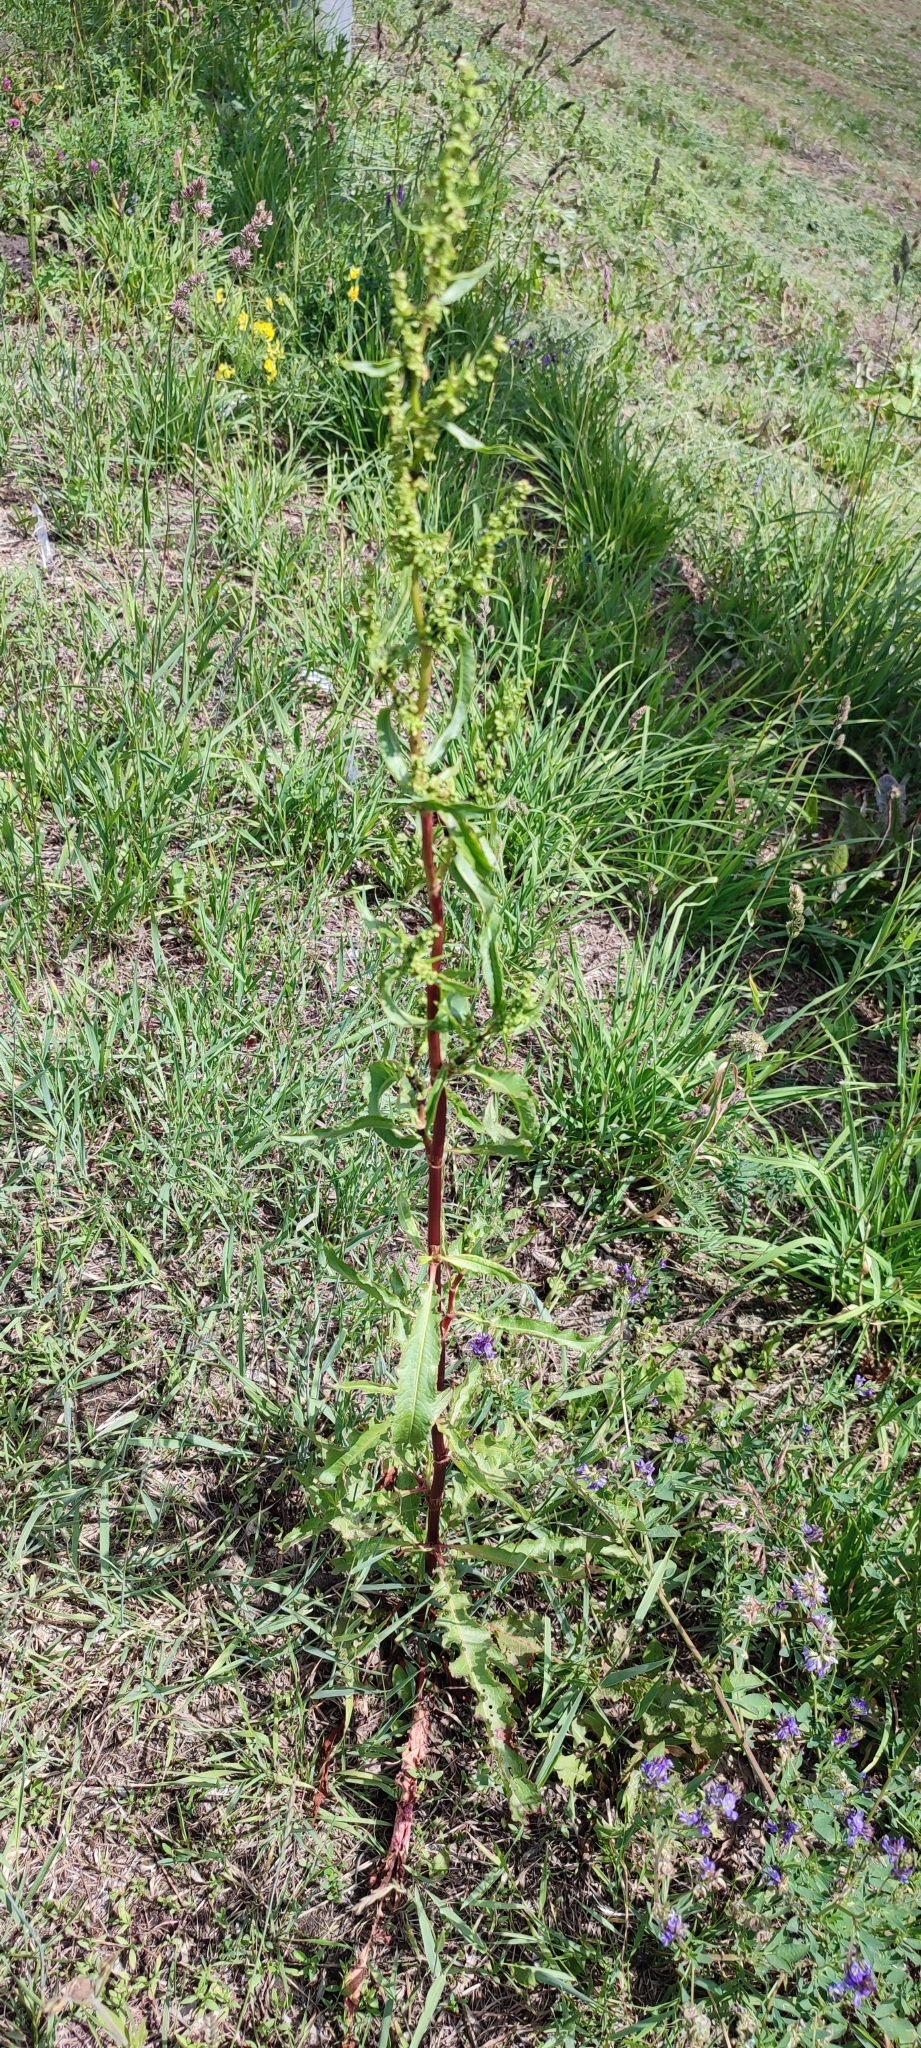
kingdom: Plantae
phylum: Tracheophyta
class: Magnoliopsida
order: Caryophyllales
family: Polygonaceae
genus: Rumex
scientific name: Rumex pseudonatronatus
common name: Field dock
